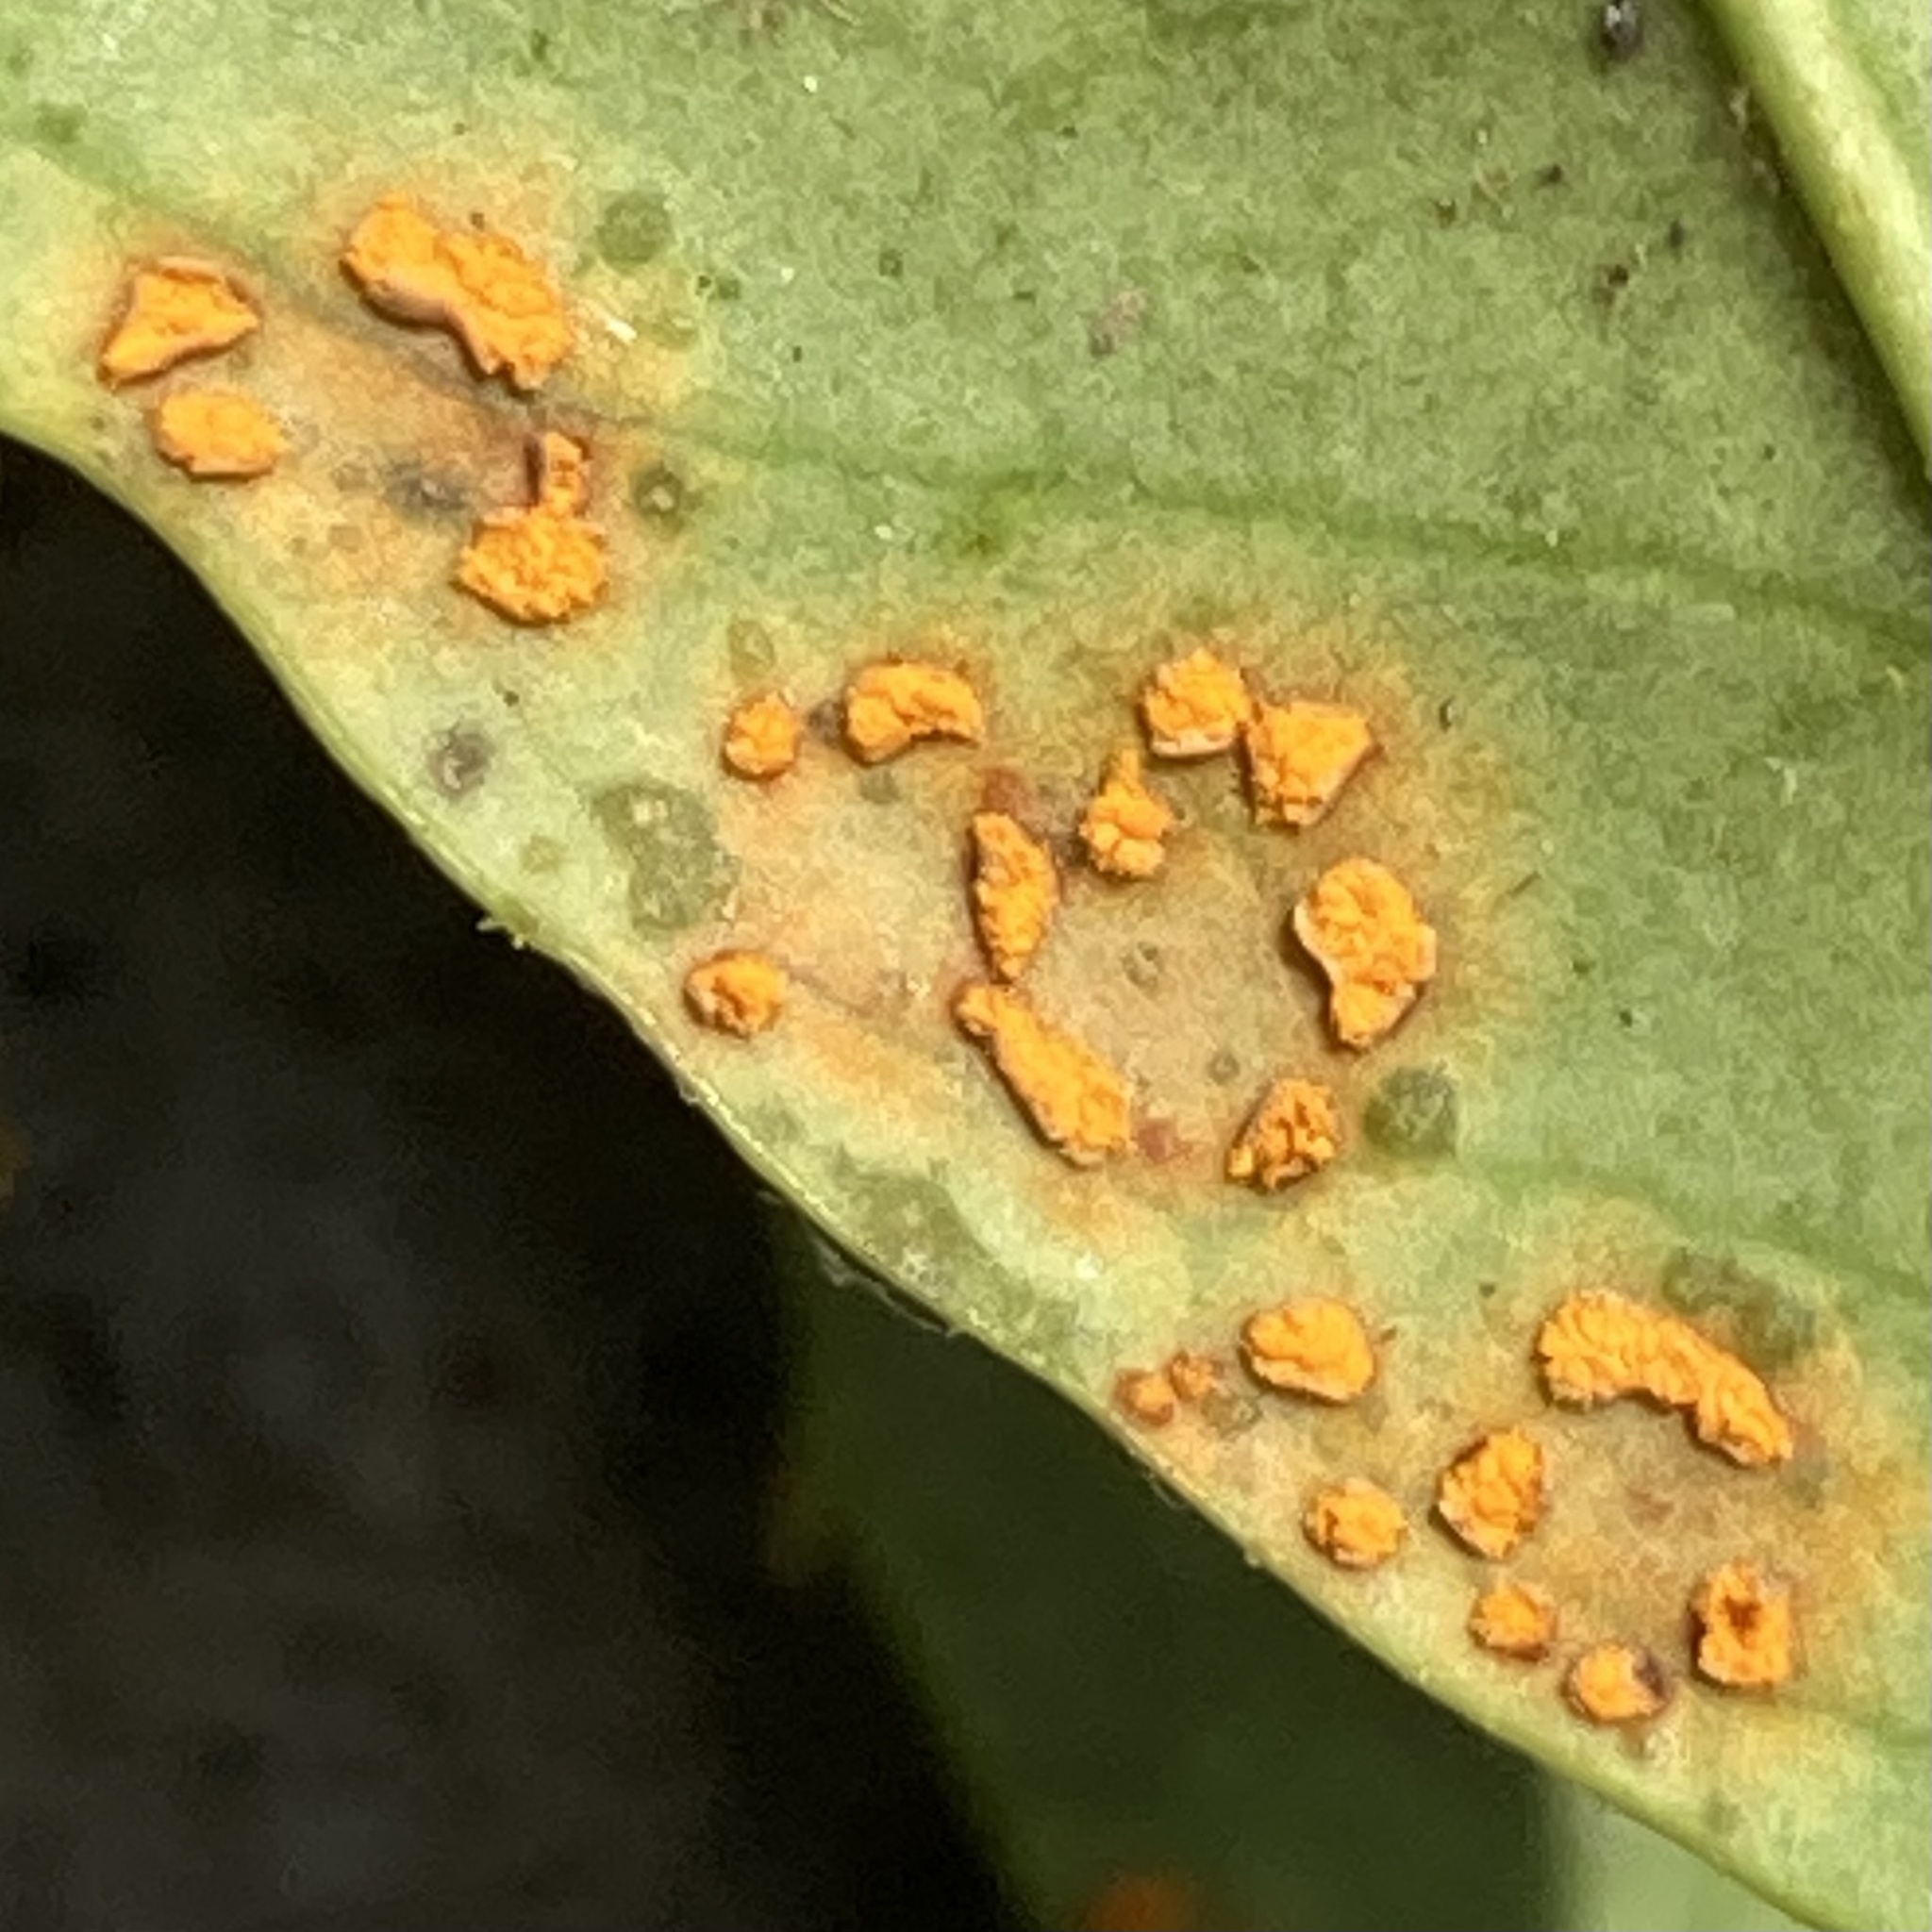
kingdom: Fungi
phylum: Basidiomycota
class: Pucciniomycetes
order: Pucciniales
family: Coleosporiaceae
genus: Chrysomyxa
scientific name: Chrysomyxa ilicina
